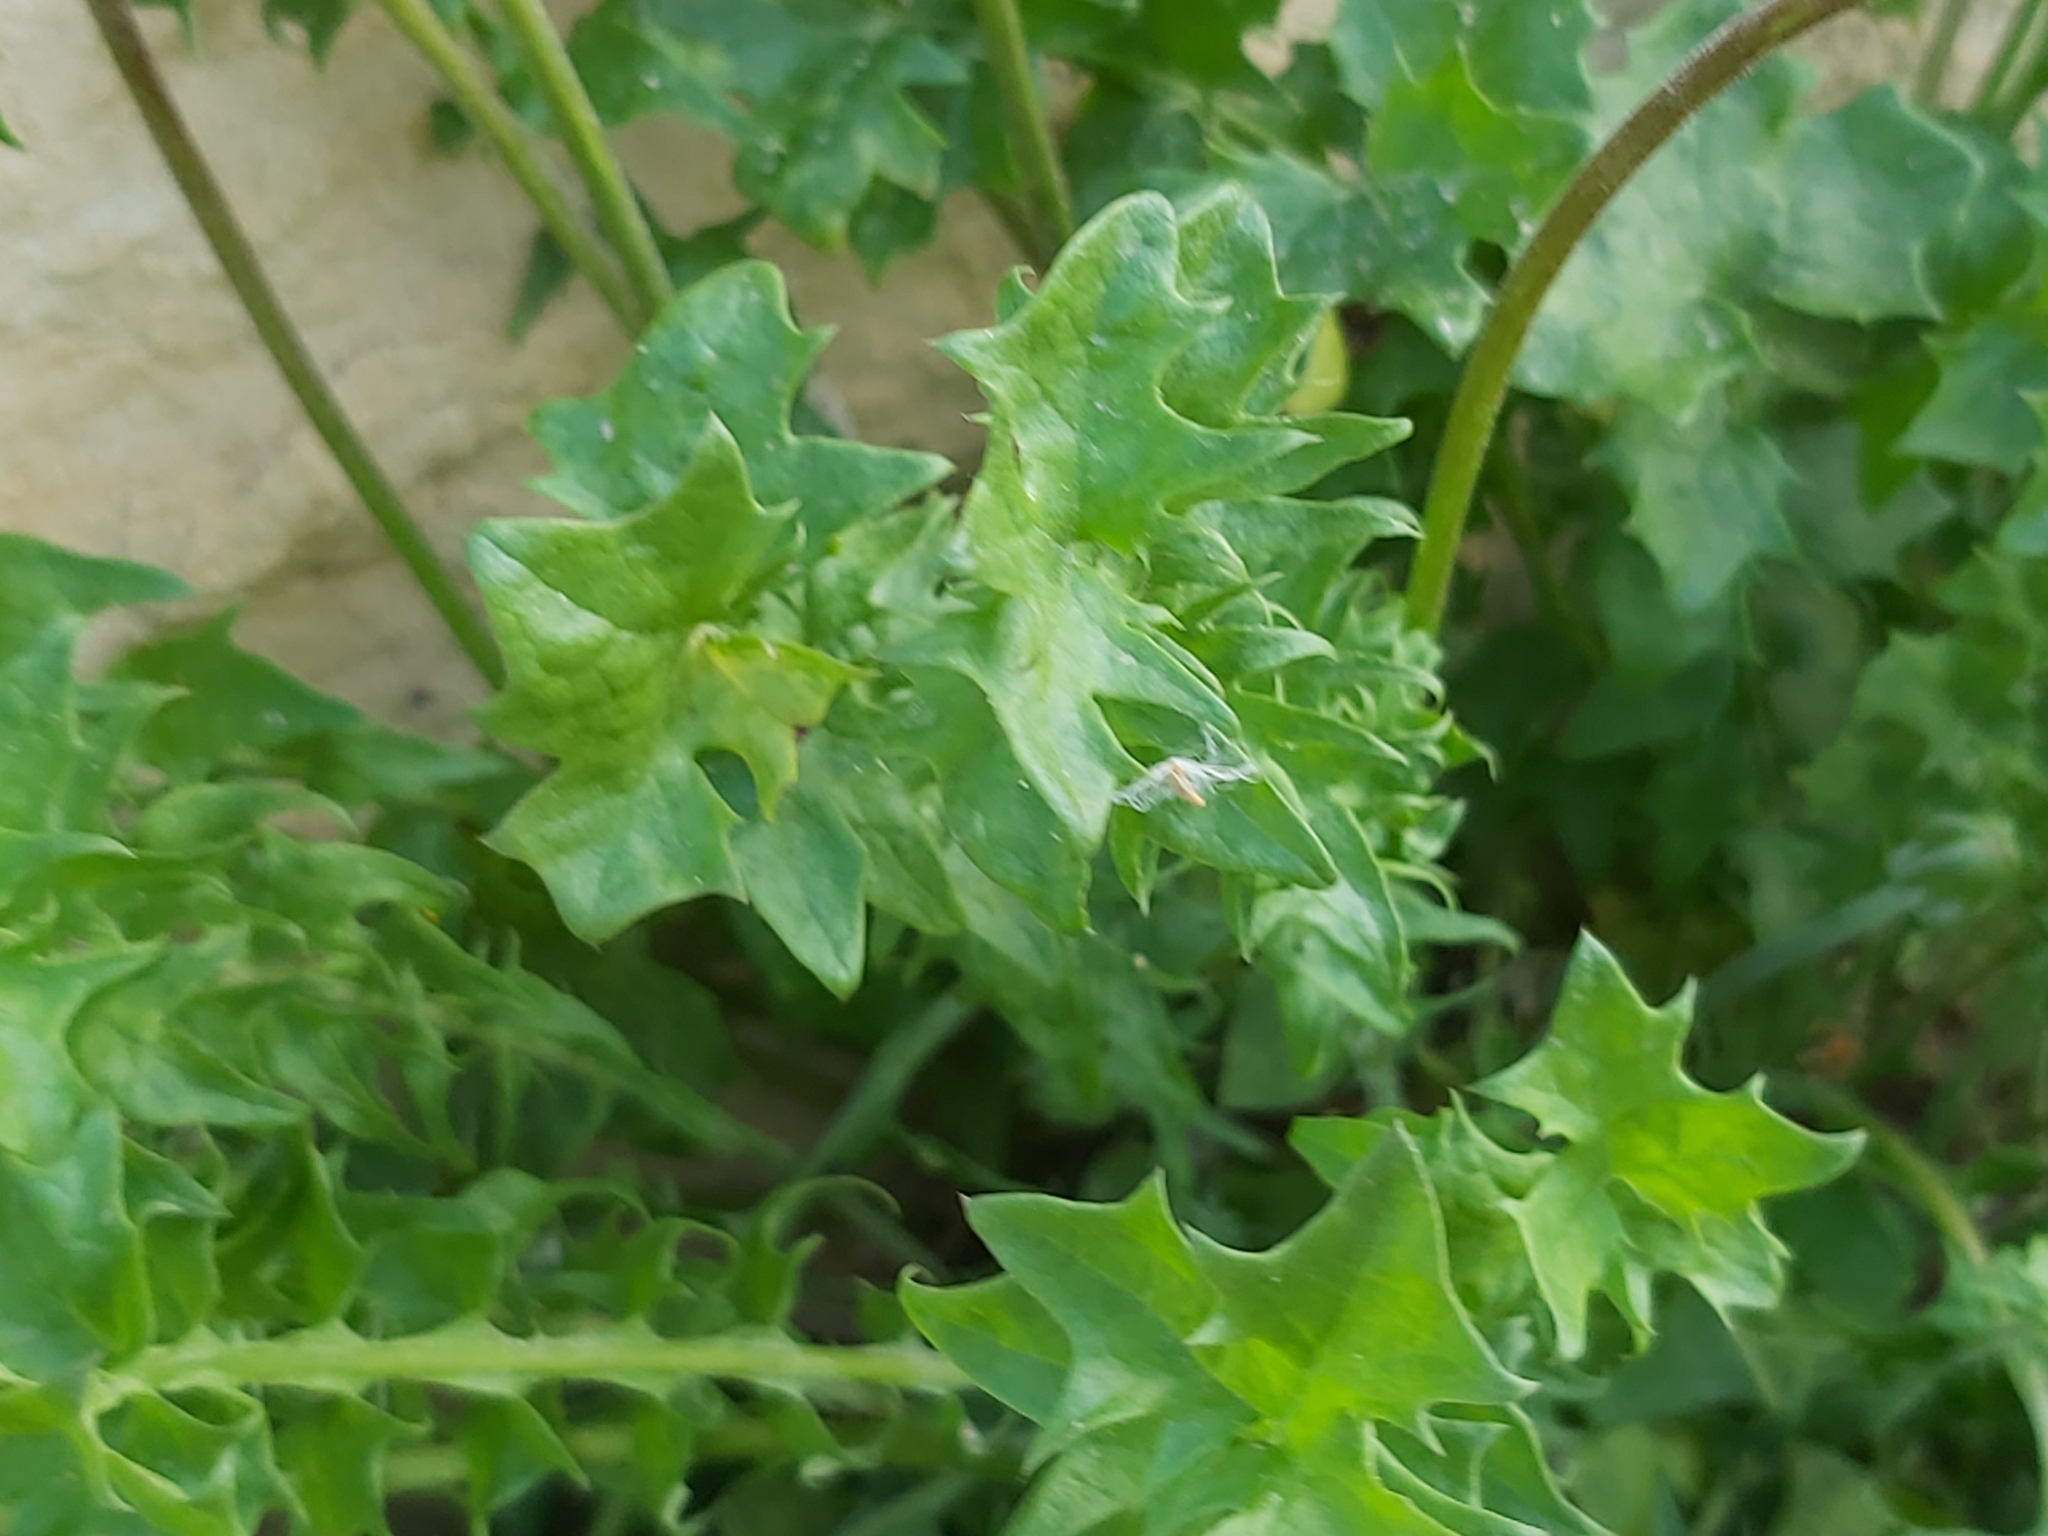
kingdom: Plantae
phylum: Tracheophyta
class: Magnoliopsida
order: Asterales
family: Asteraceae
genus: Hyoseris
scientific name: Hyoseris radiata
